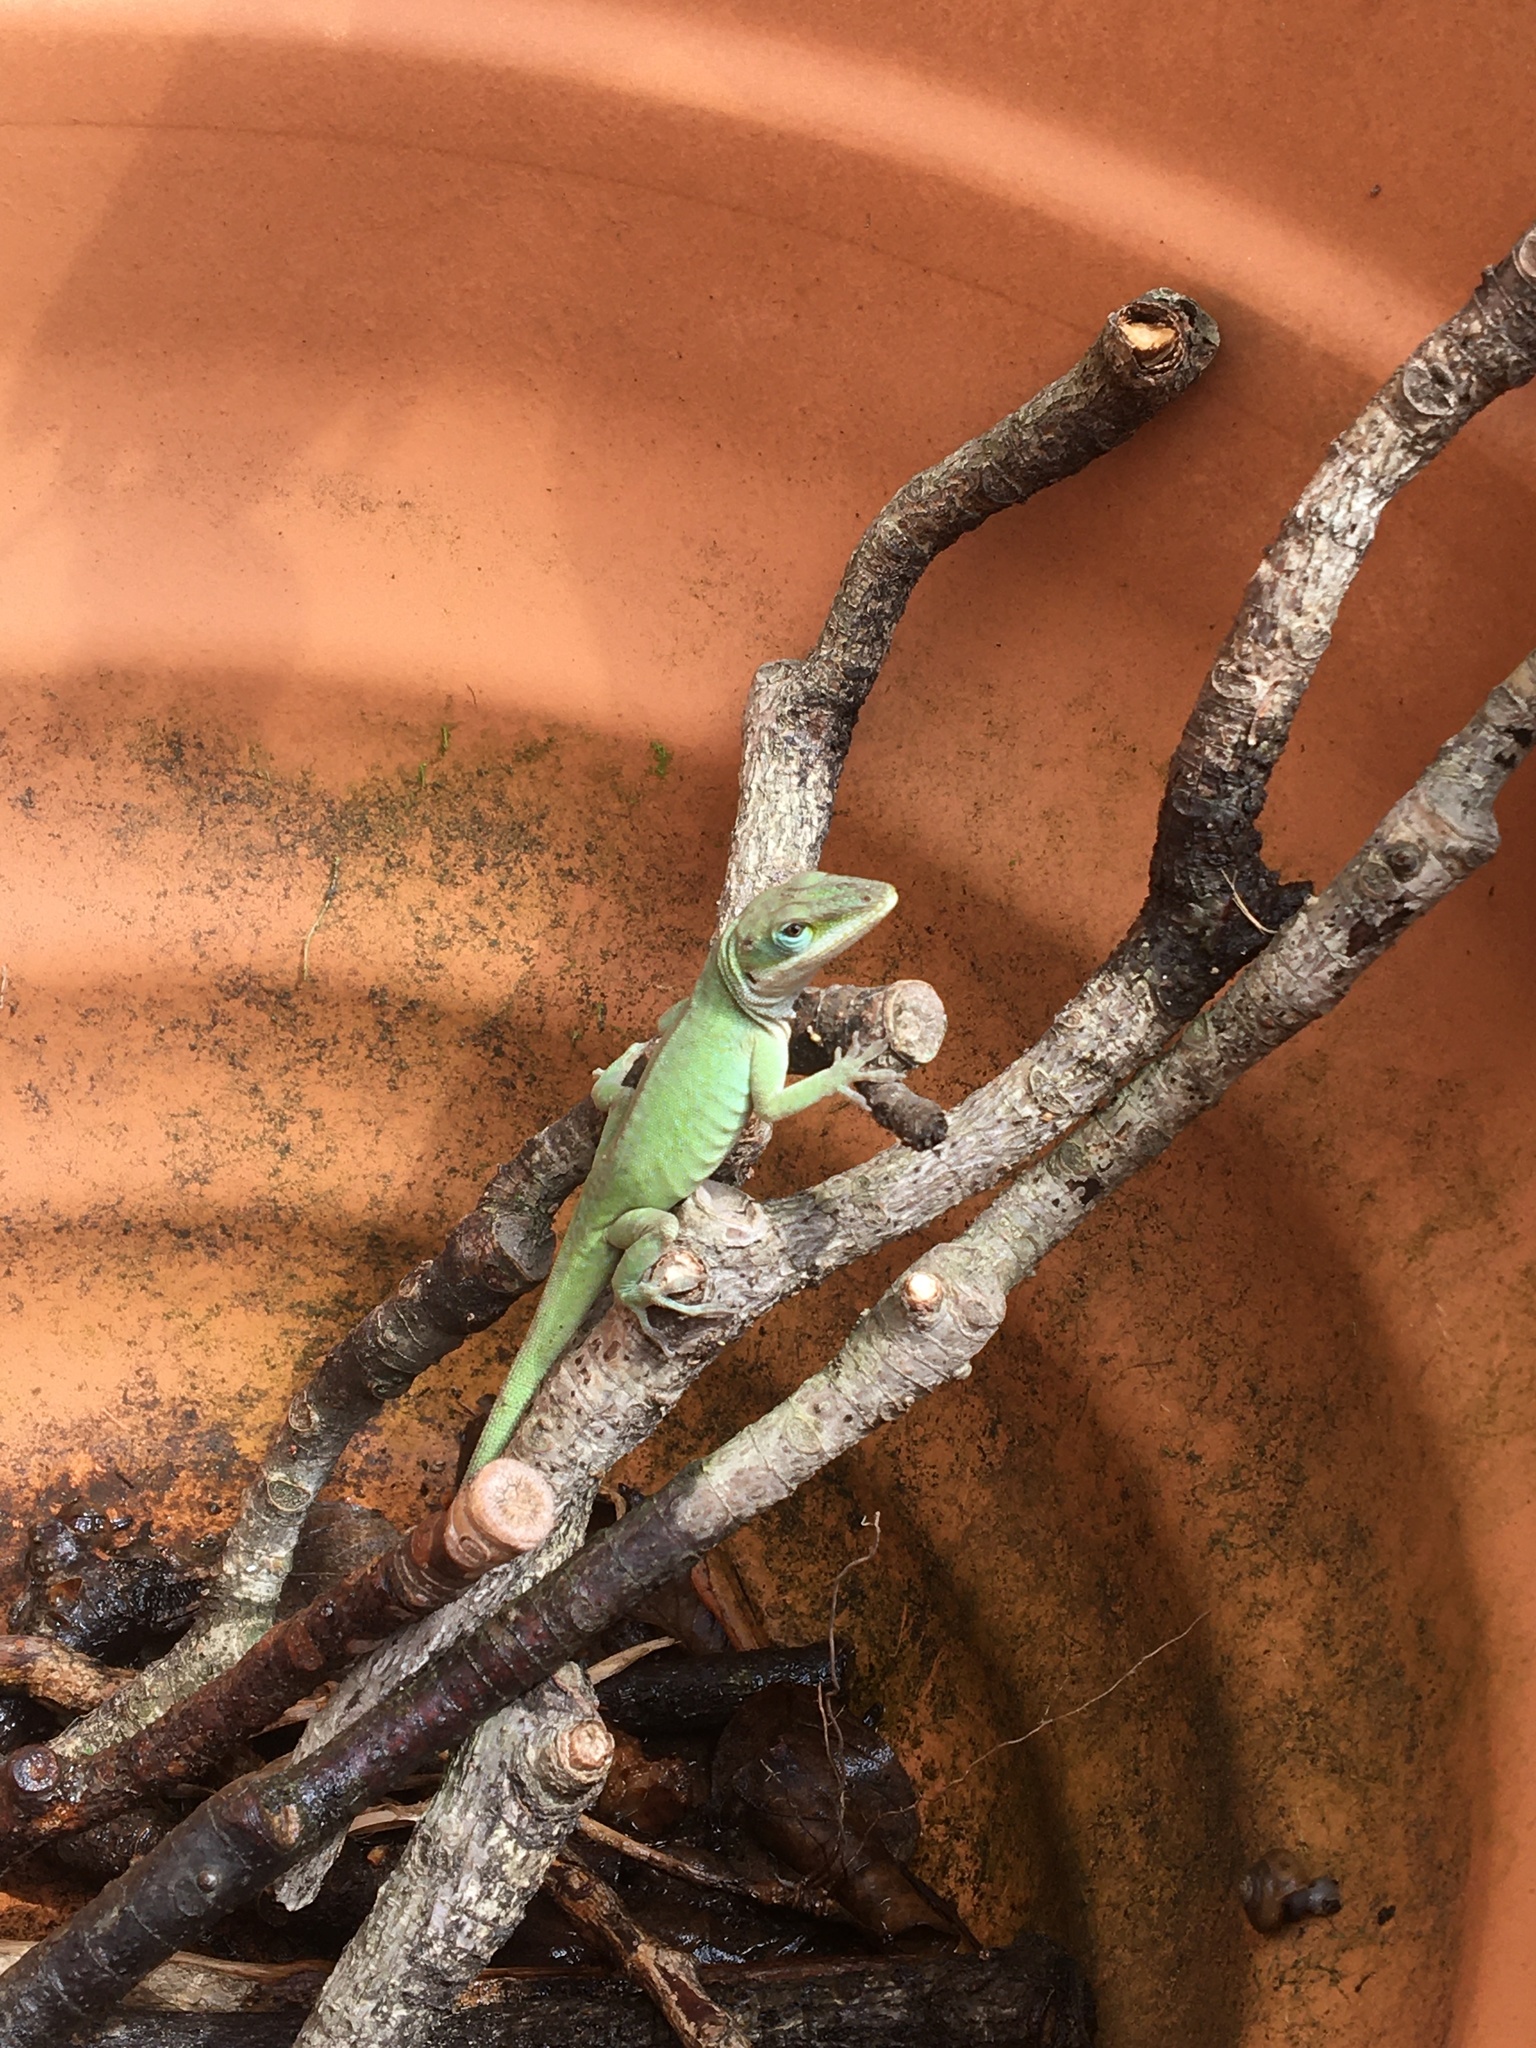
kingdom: Animalia
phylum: Chordata
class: Squamata
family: Dactyloidae
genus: Anolis
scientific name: Anolis carolinensis
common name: Green anole
